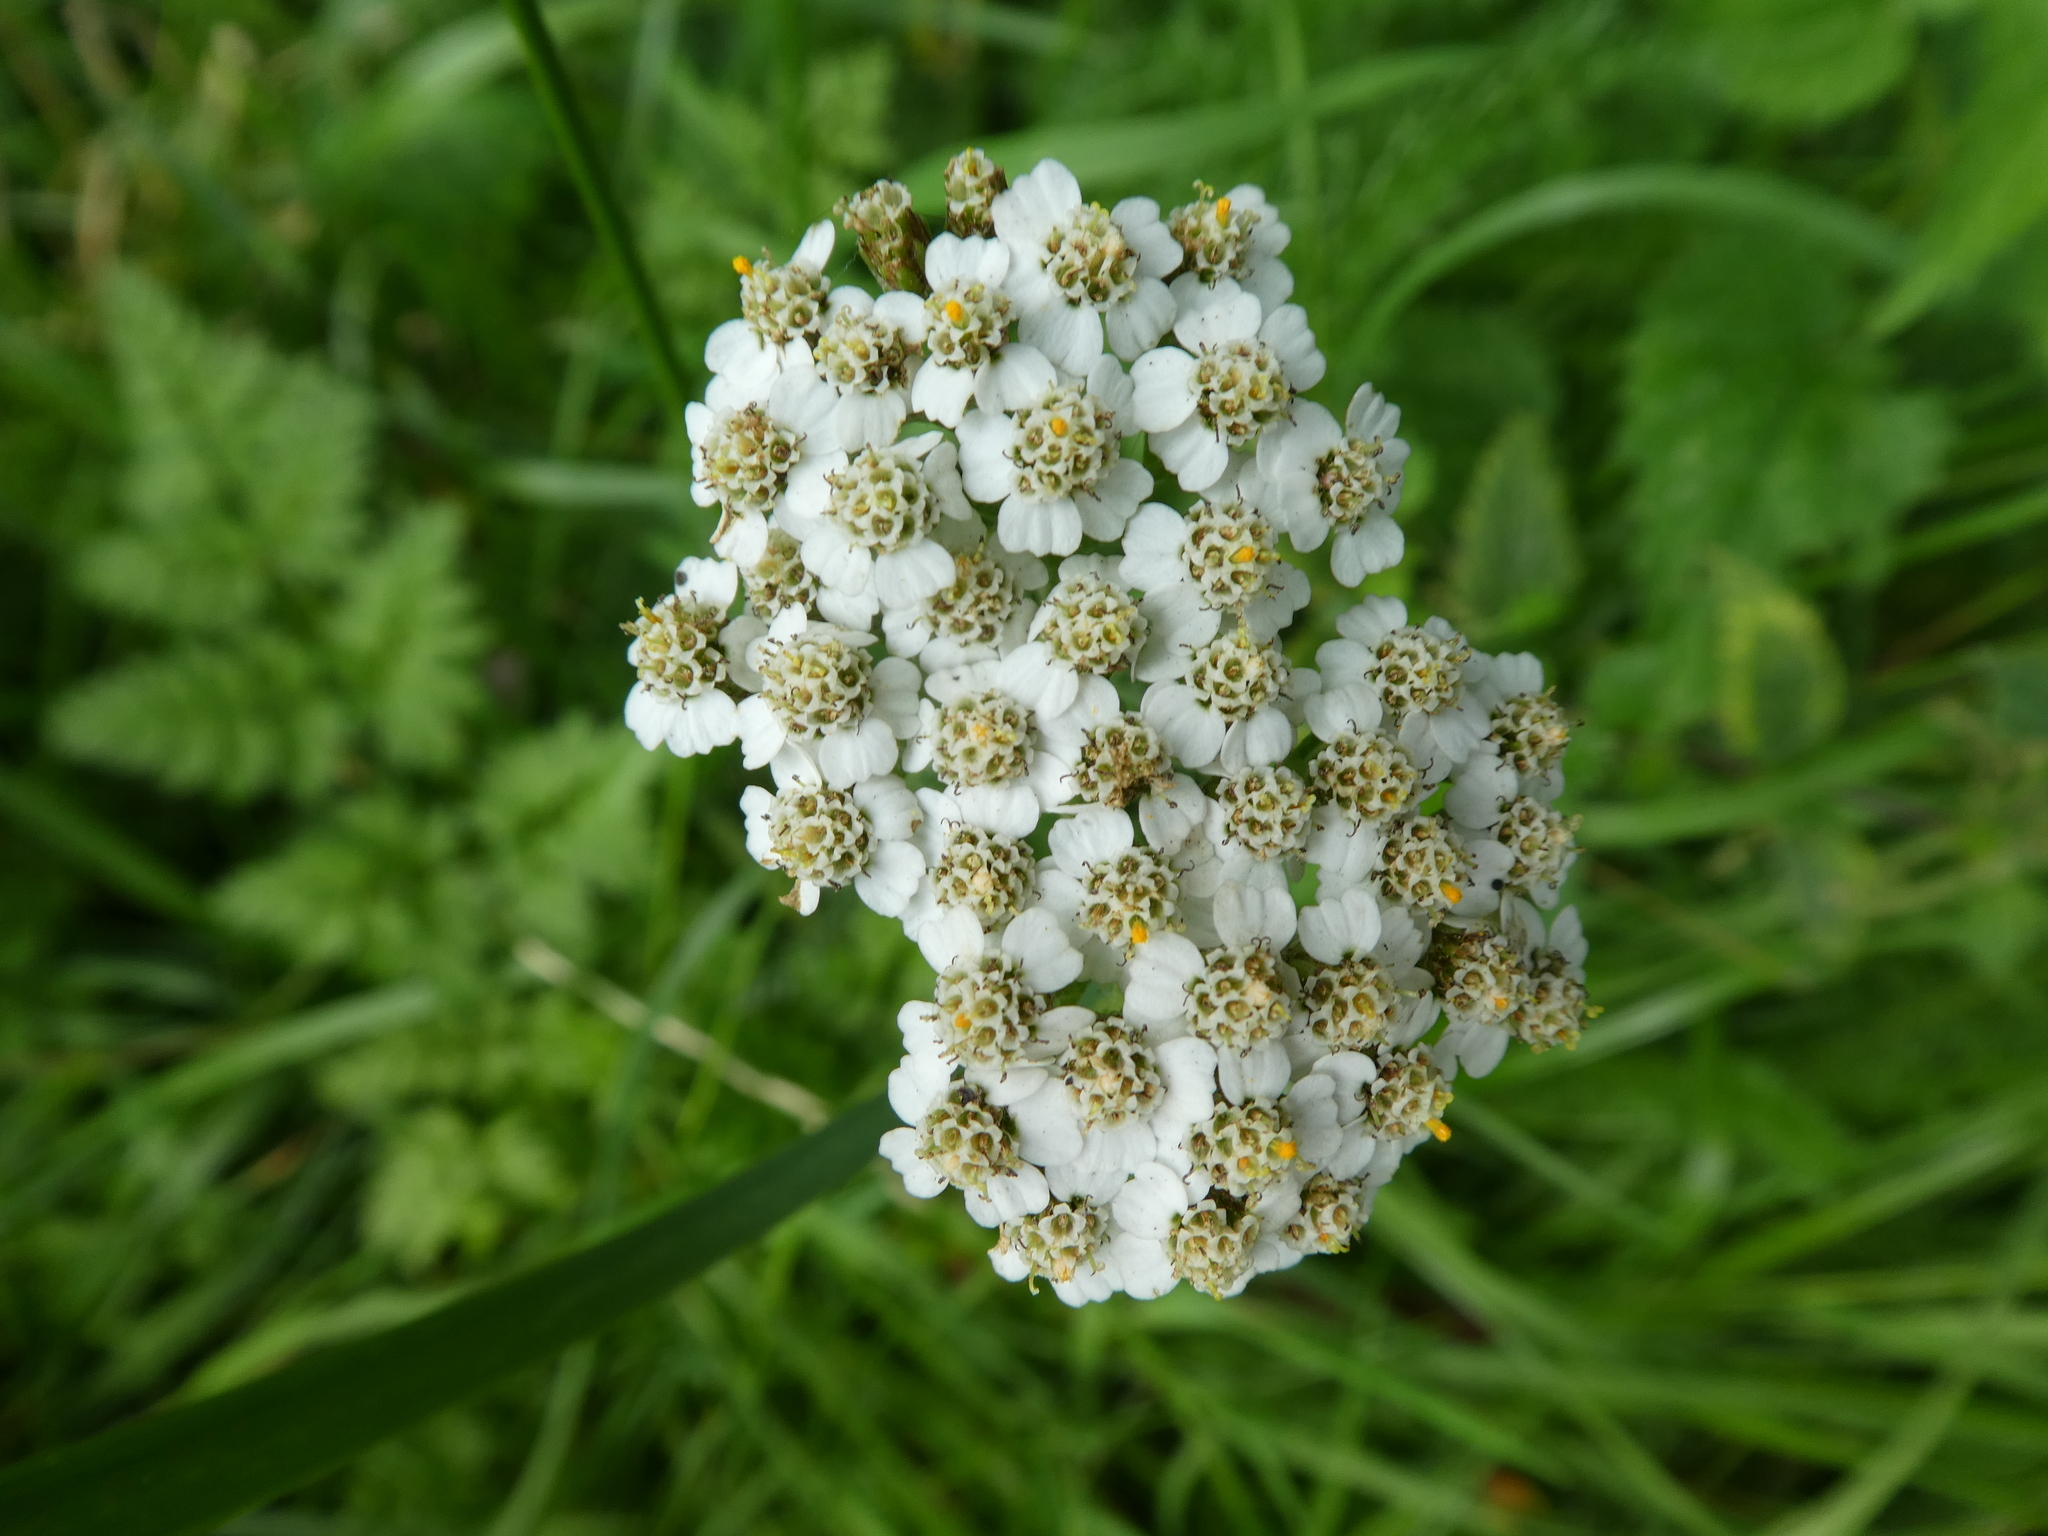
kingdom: Plantae
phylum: Tracheophyta
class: Magnoliopsida
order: Asterales
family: Asteraceae
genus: Achillea
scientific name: Achillea millefolium
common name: Yarrow
